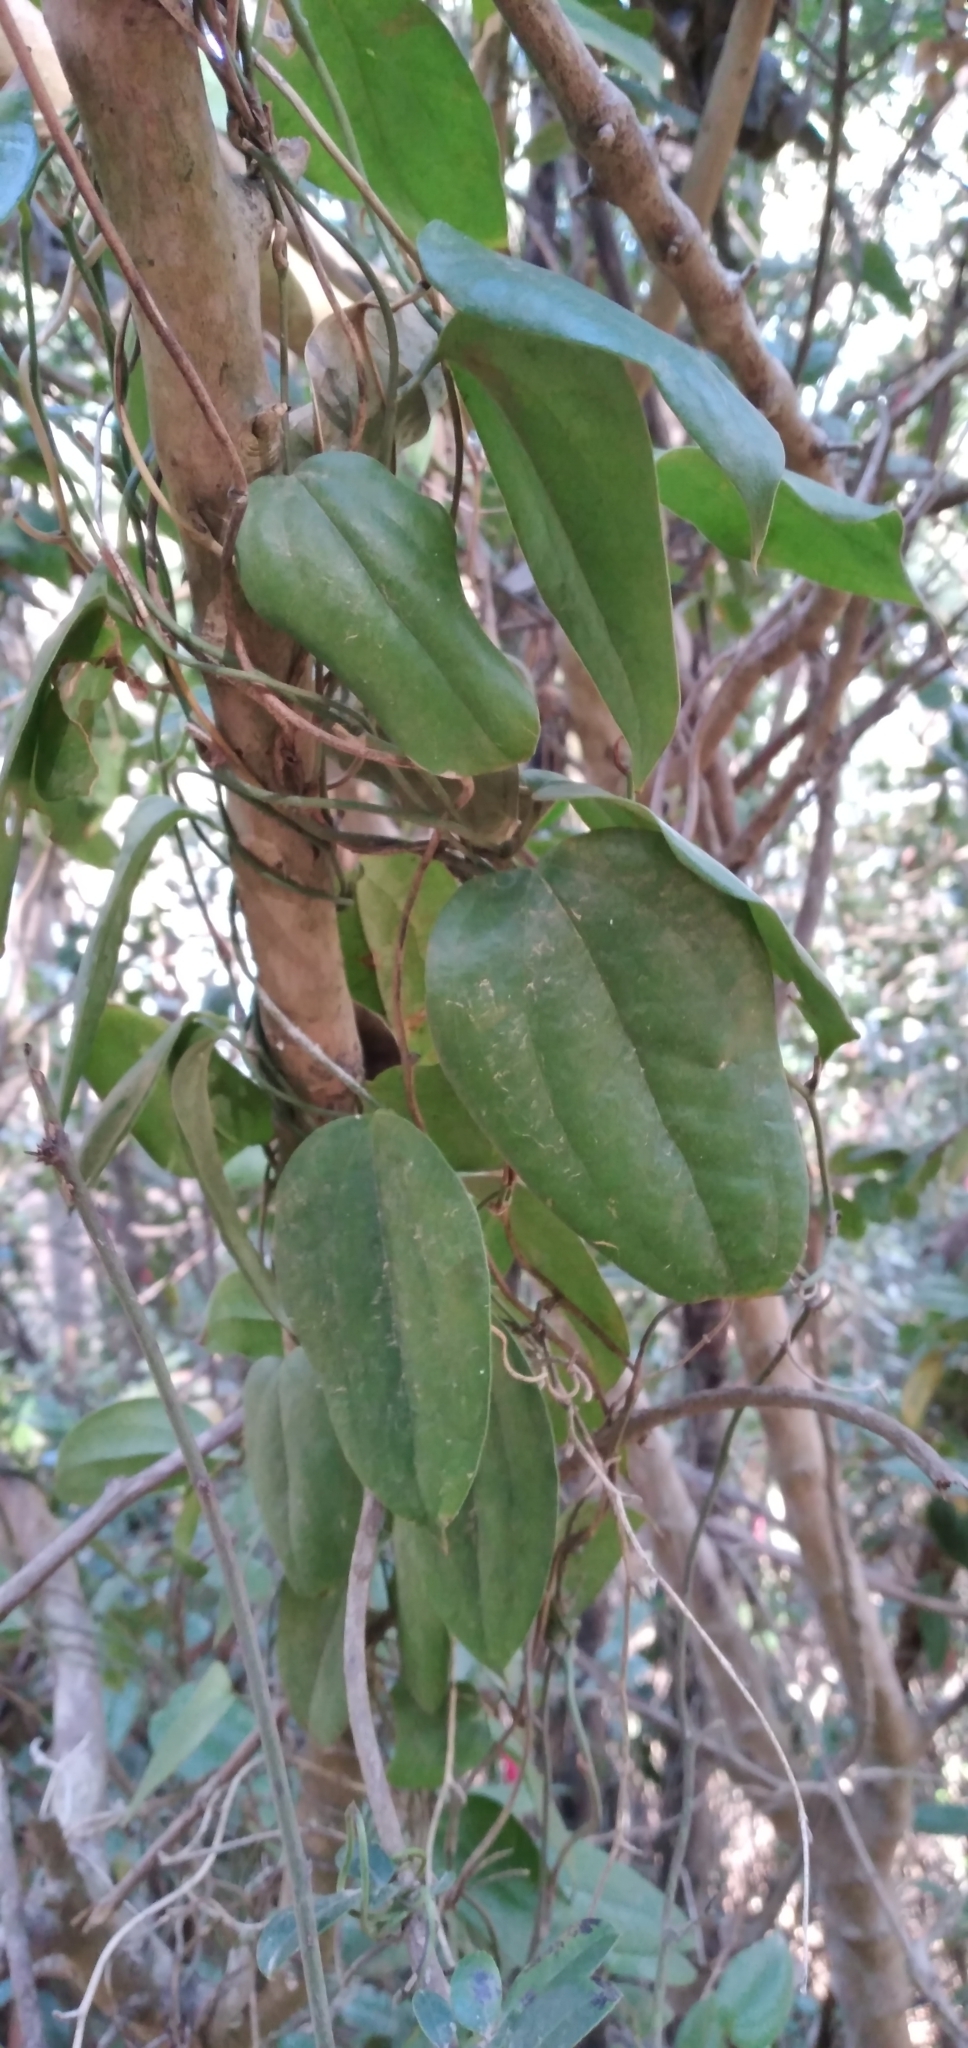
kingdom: Plantae
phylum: Tracheophyta
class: Liliopsida
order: Liliales
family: Philesiaceae
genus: Lapageria
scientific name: Lapageria rosea
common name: Chilean-bellflower
